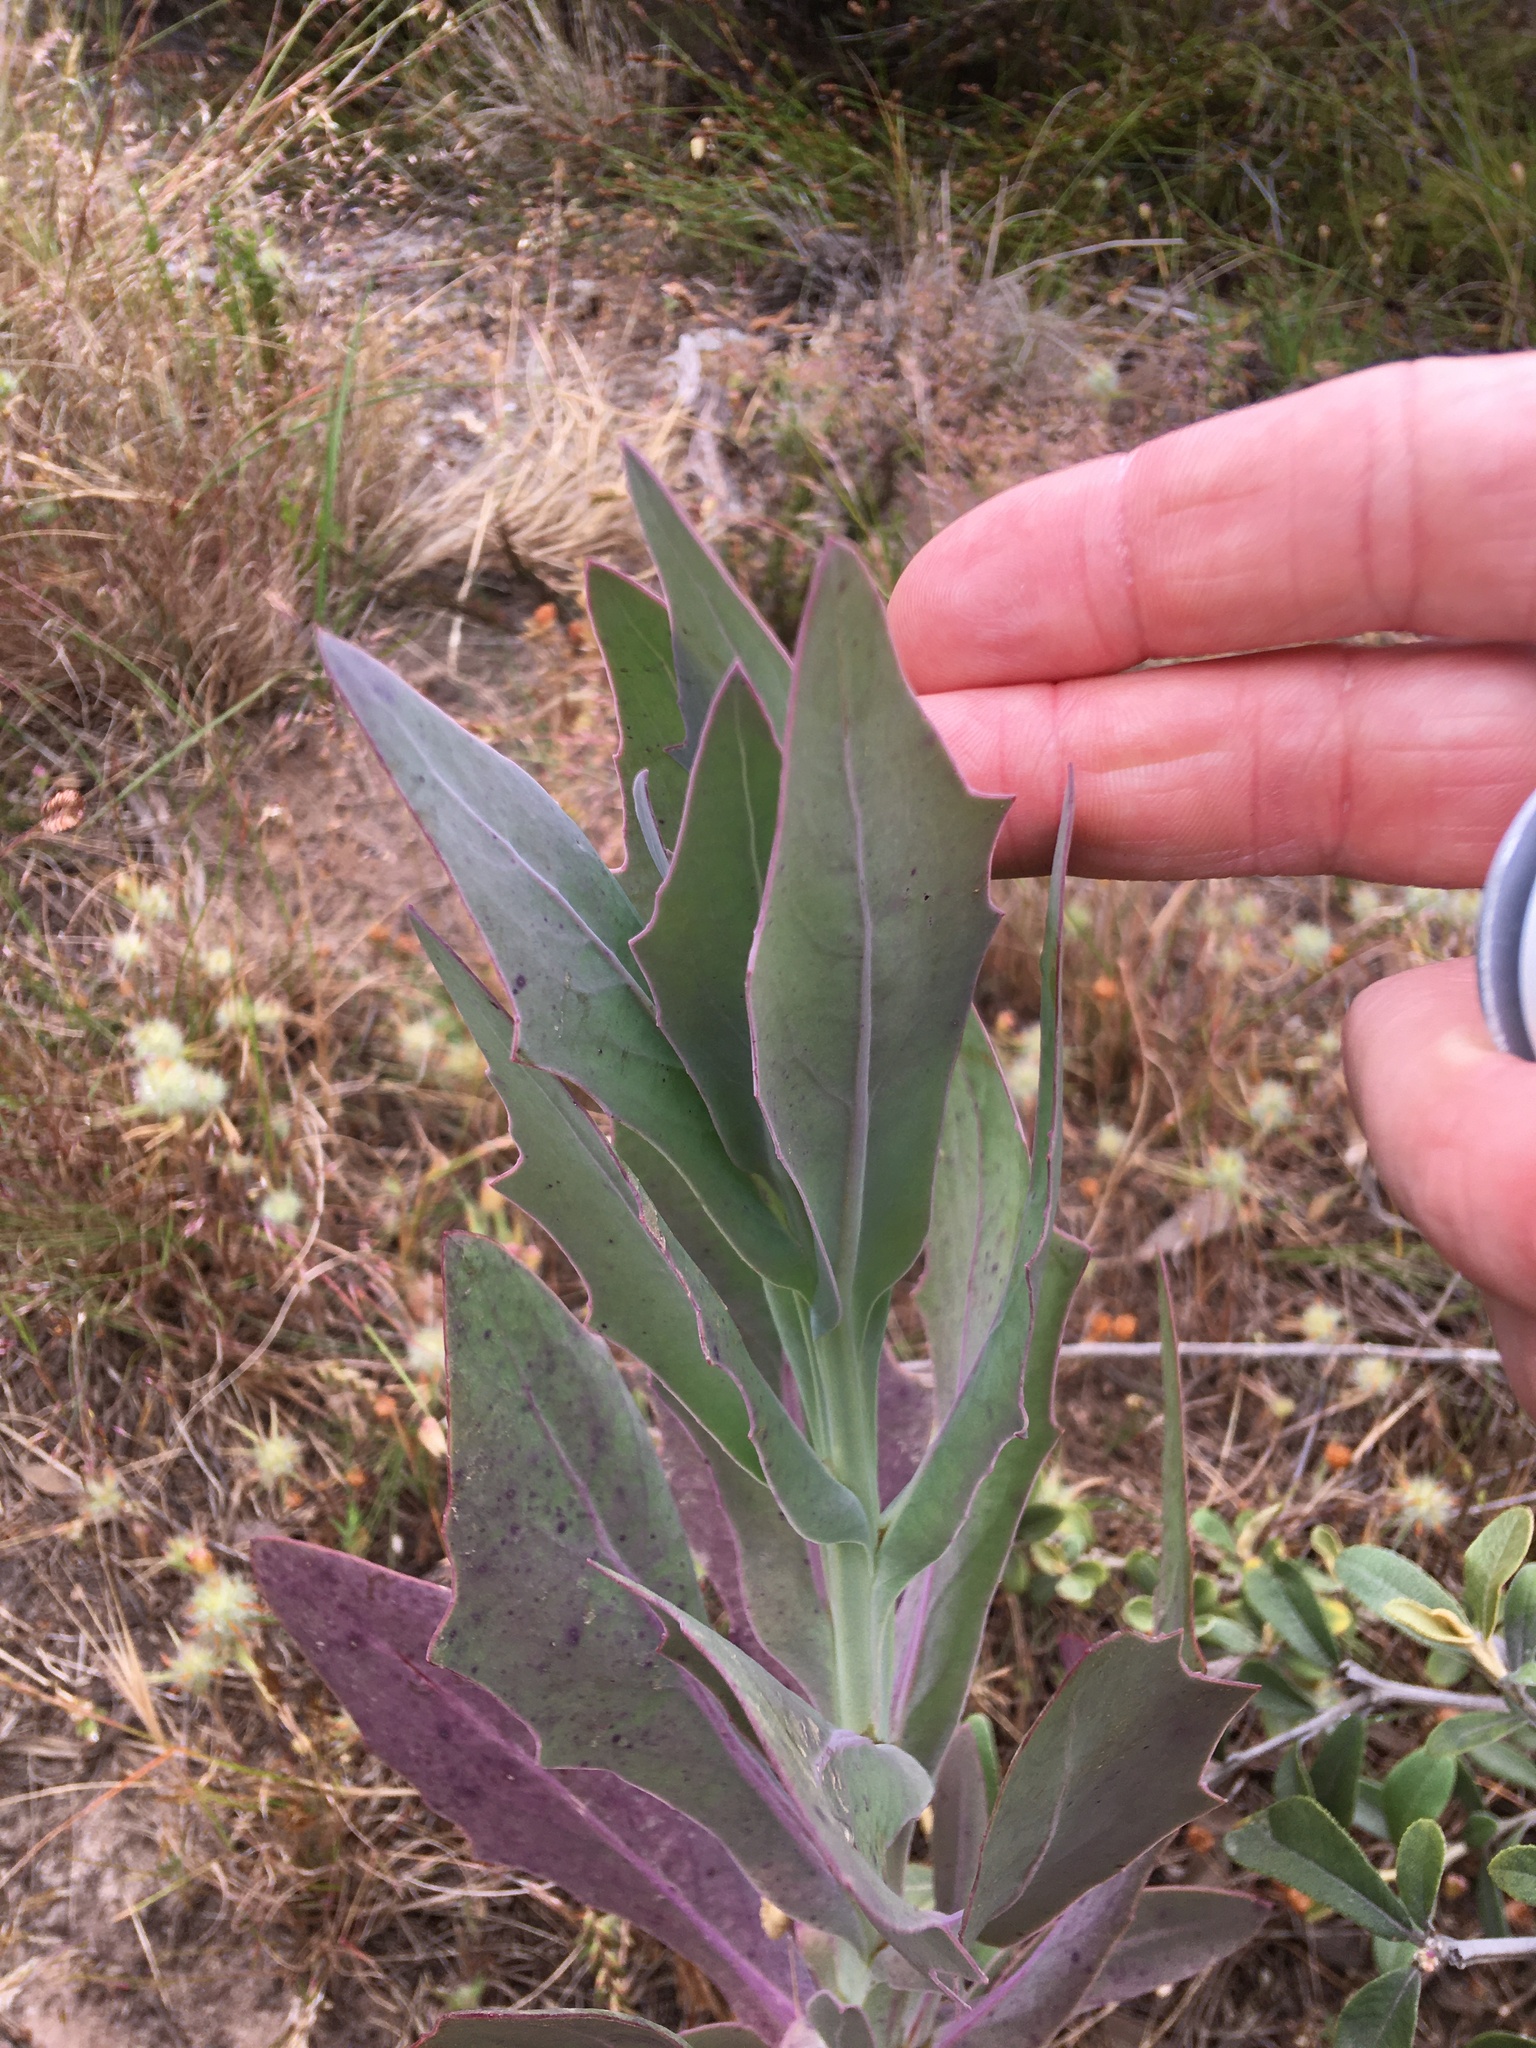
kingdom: Plantae
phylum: Tracheophyta
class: Magnoliopsida
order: Asterales
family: Asteraceae
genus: Othonna
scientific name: Othonna quinquedentata
